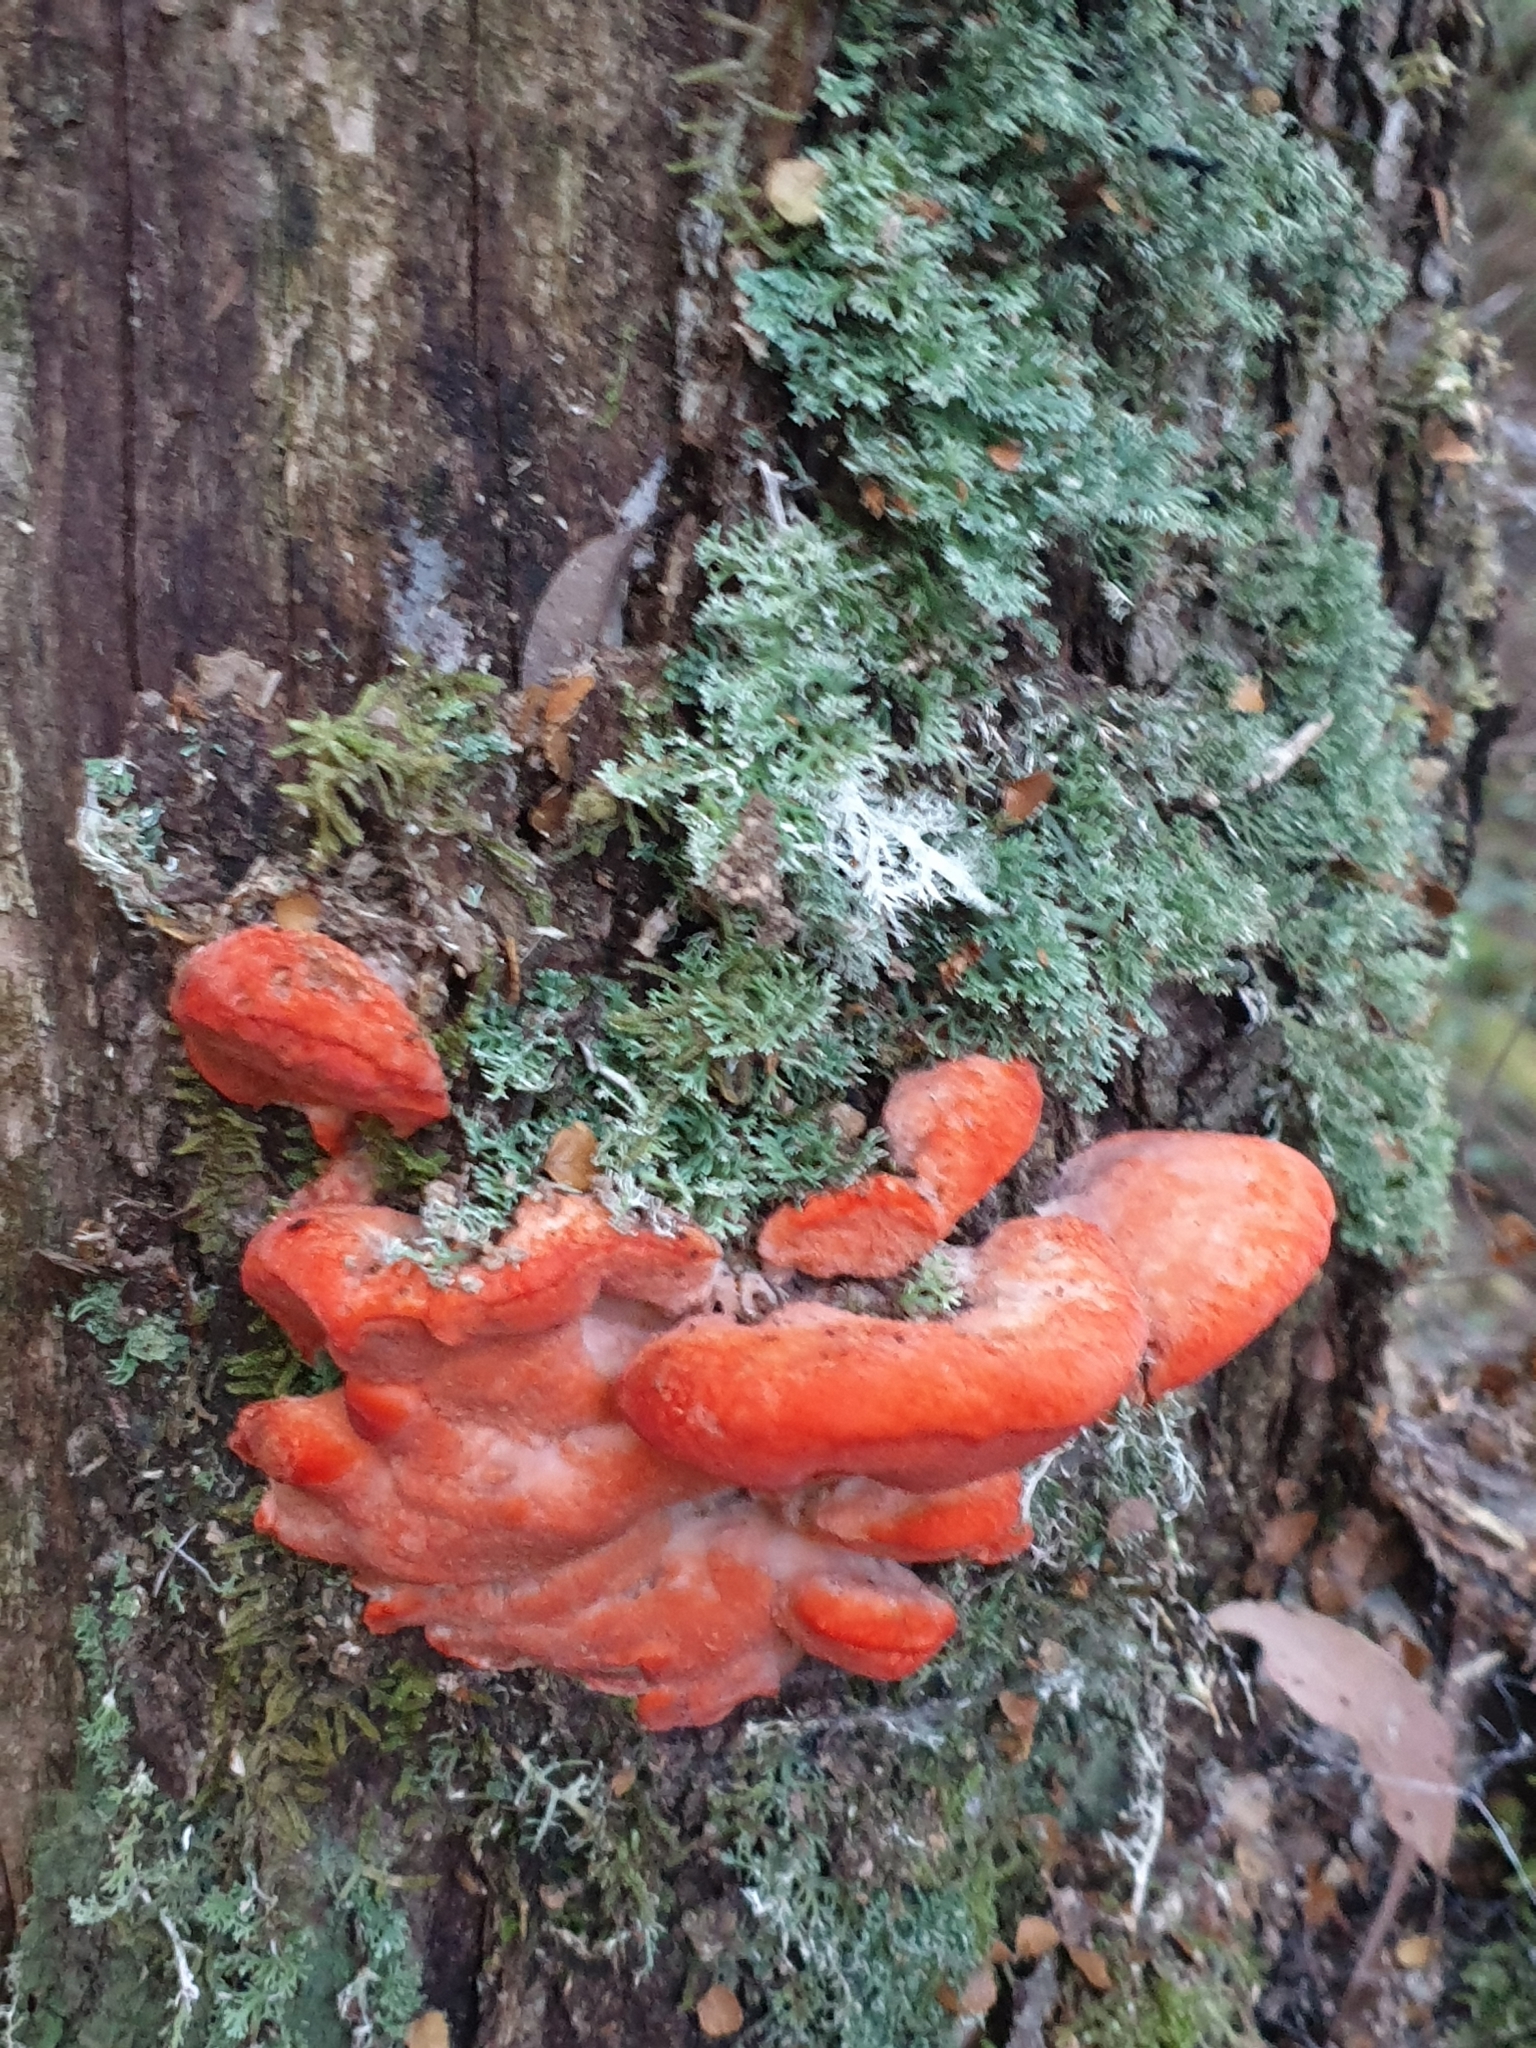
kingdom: Fungi
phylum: Basidiomycota
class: Agaricomycetes
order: Polyporales
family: Incrustoporiaceae
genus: Tyromyces
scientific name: Tyromyces pulcherrimus
